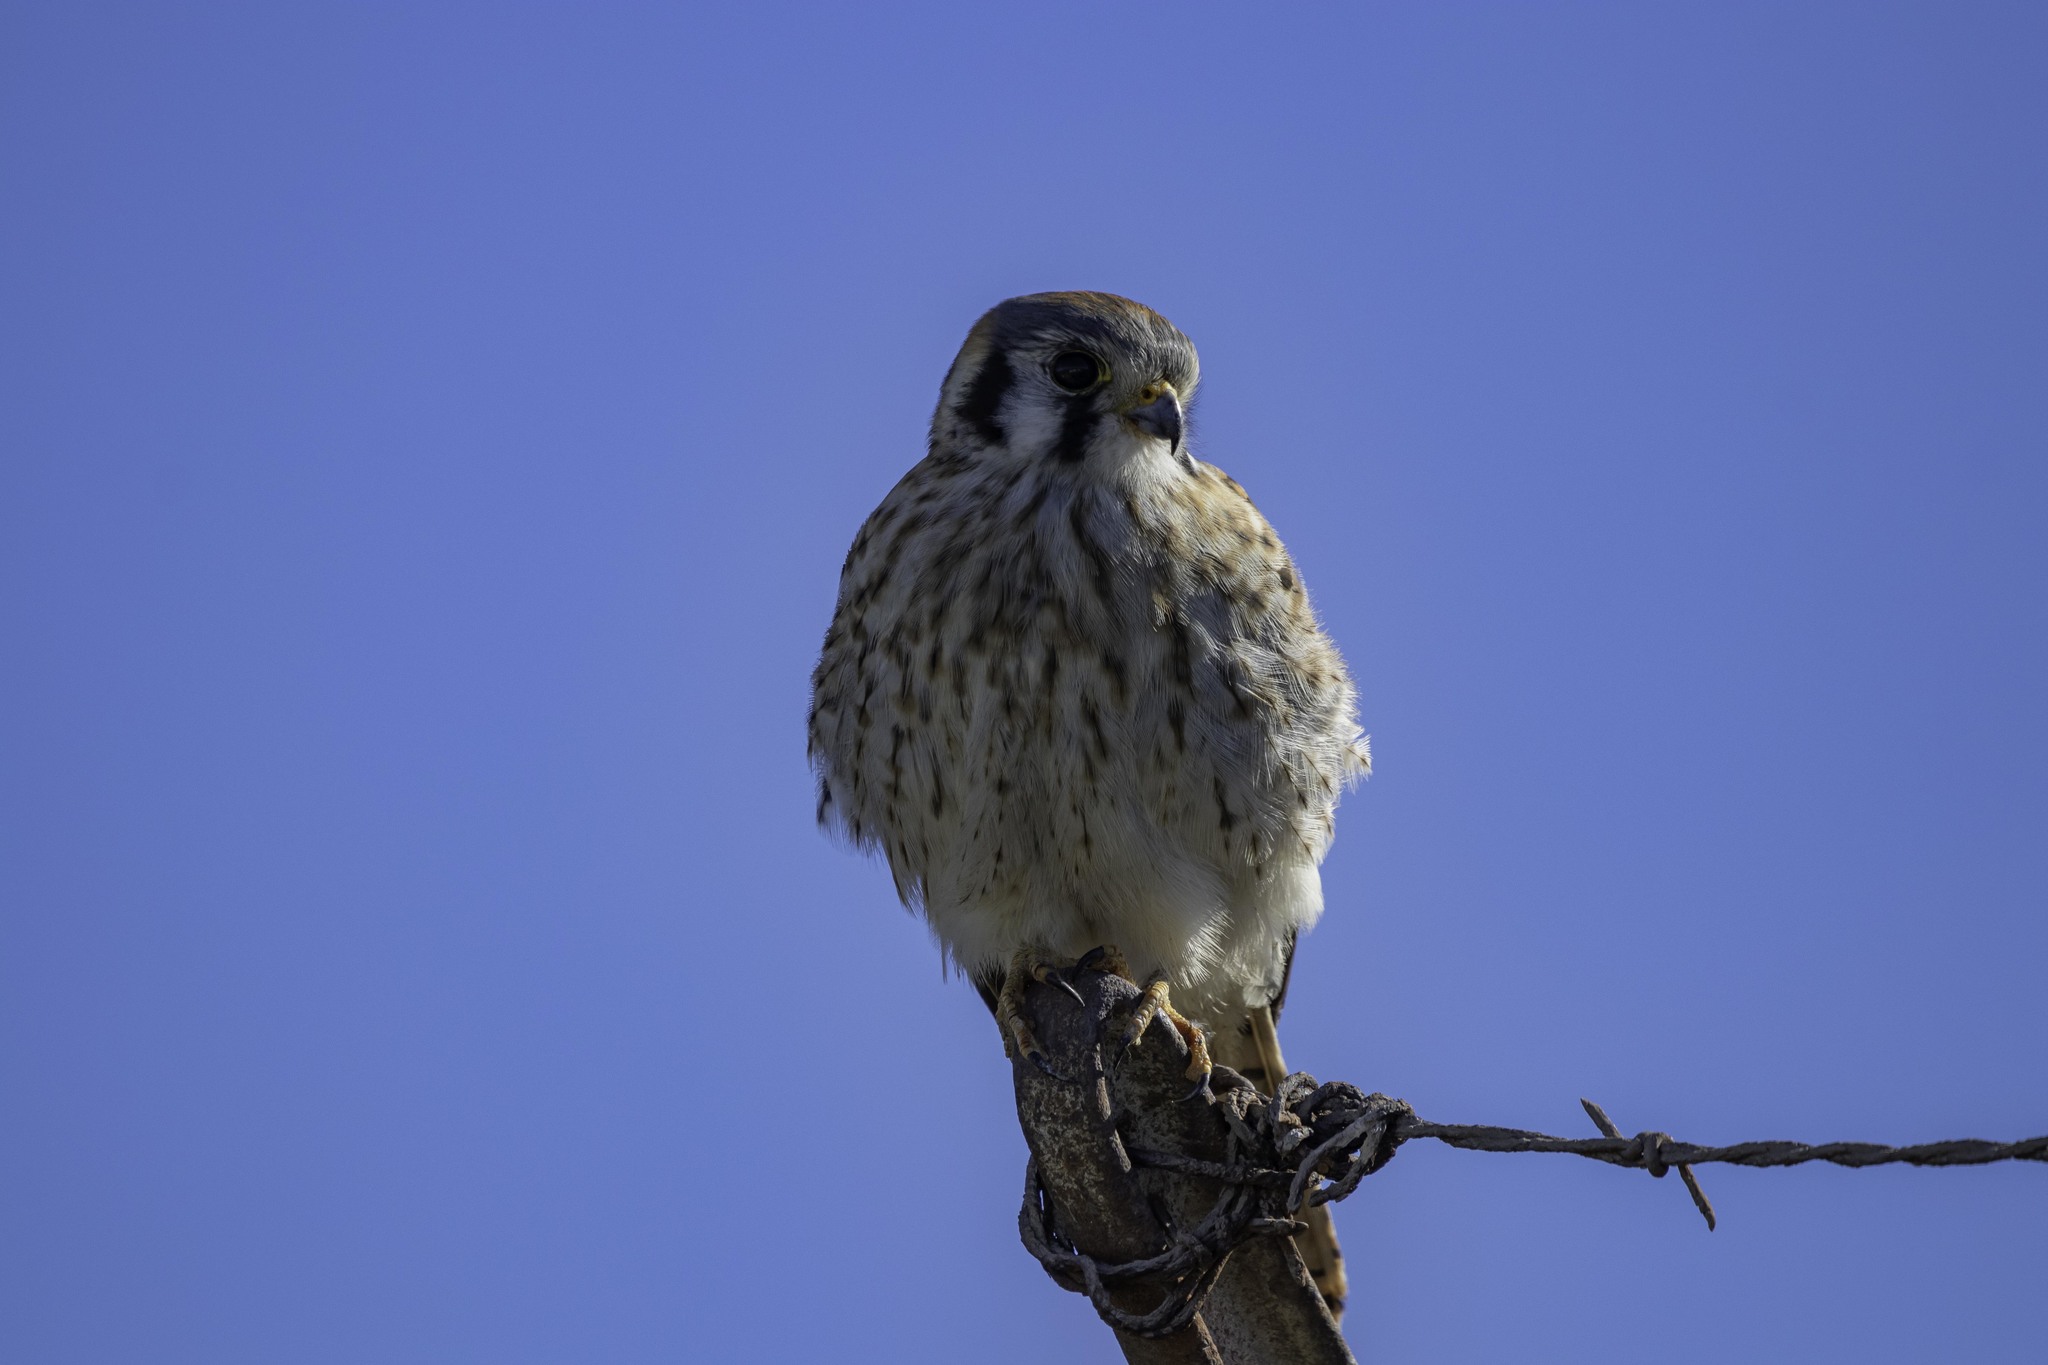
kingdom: Animalia
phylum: Chordata
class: Aves
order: Falconiformes
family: Falconidae
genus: Falco
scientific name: Falco sparverius
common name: American kestrel
